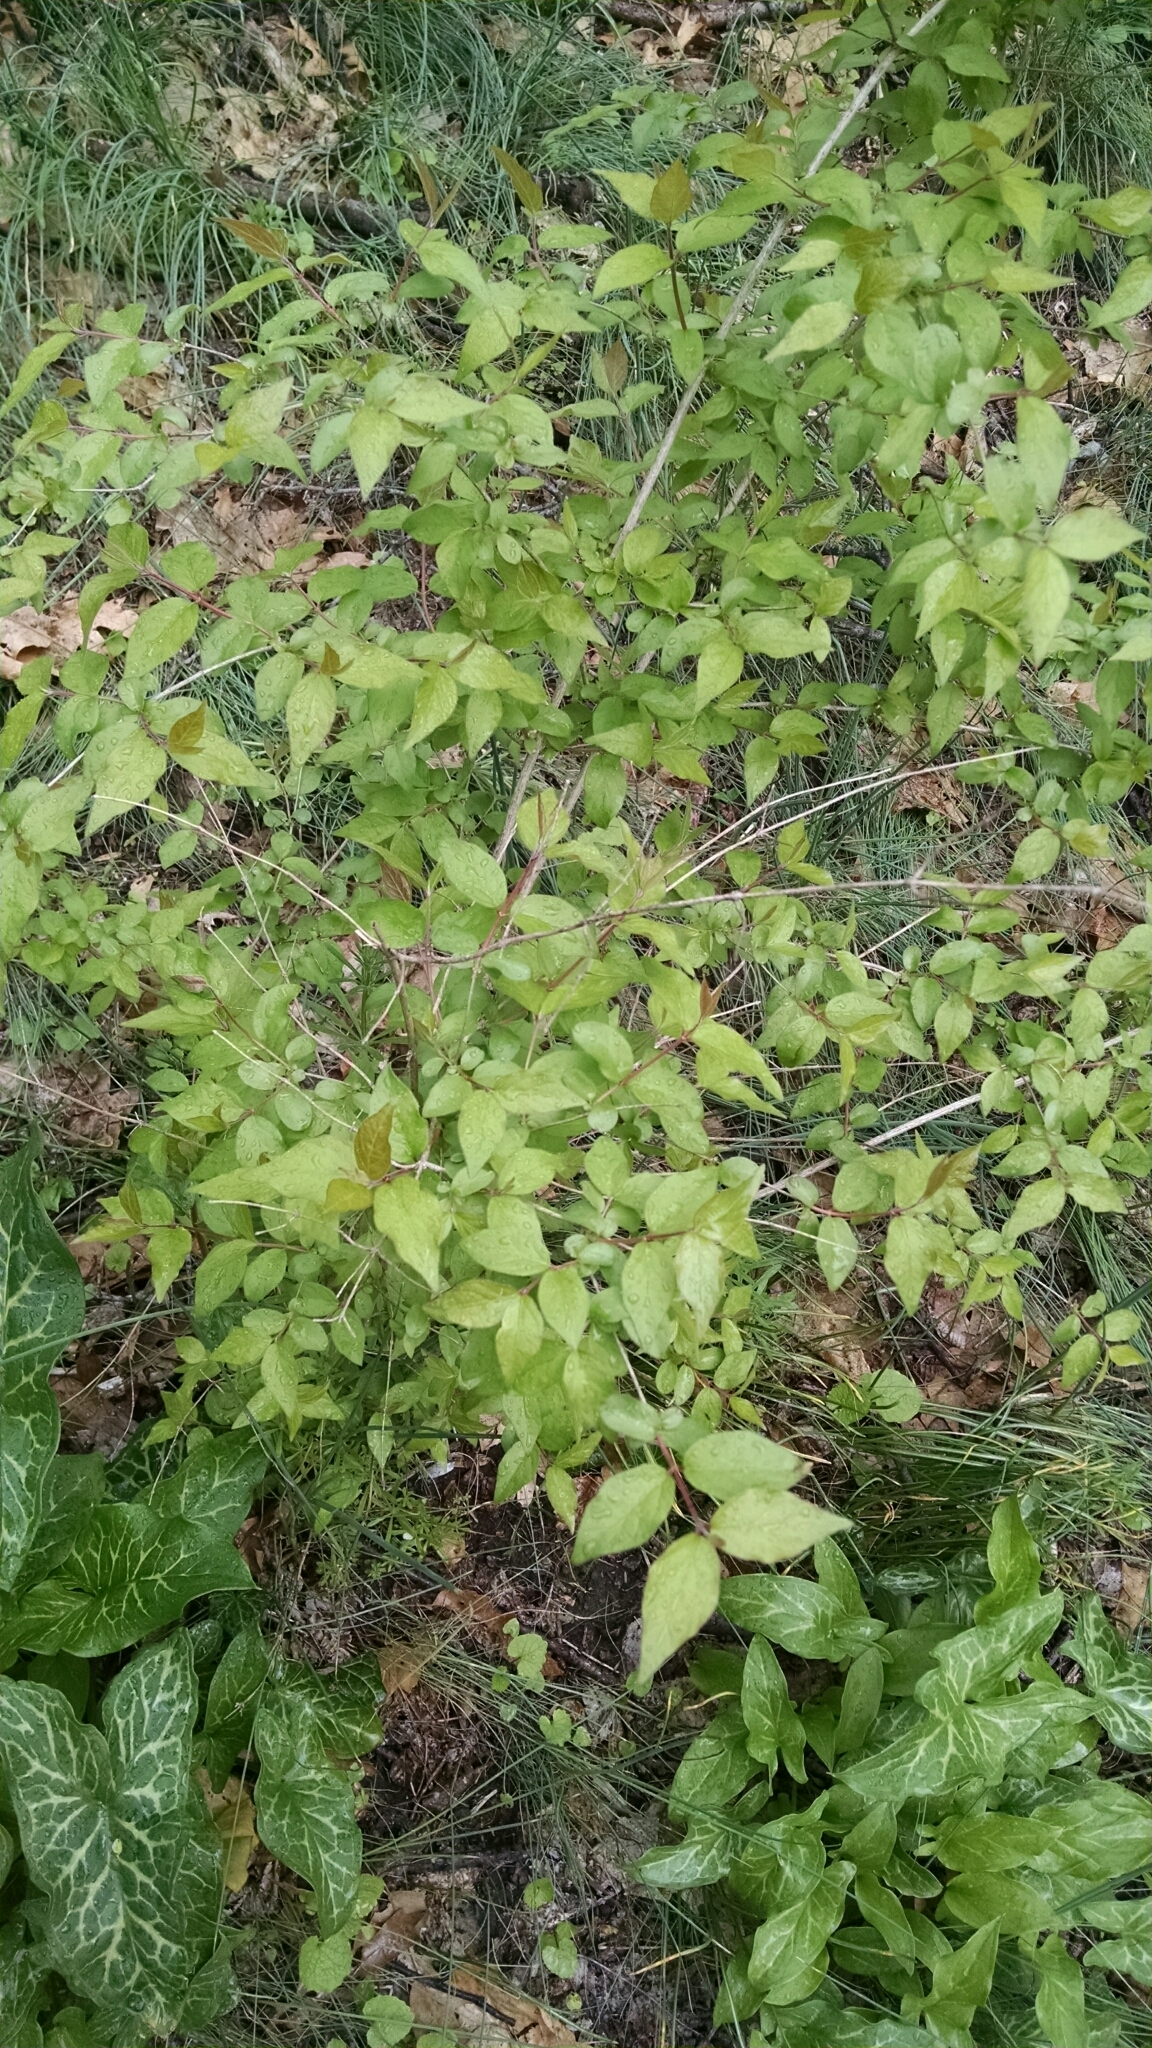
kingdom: Plantae
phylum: Tracheophyta
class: Magnoliopsida
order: Dipsacales
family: Caprifoliaceae
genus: Lonicera
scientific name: Lonicera maackii
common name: Amur honeysuckle
